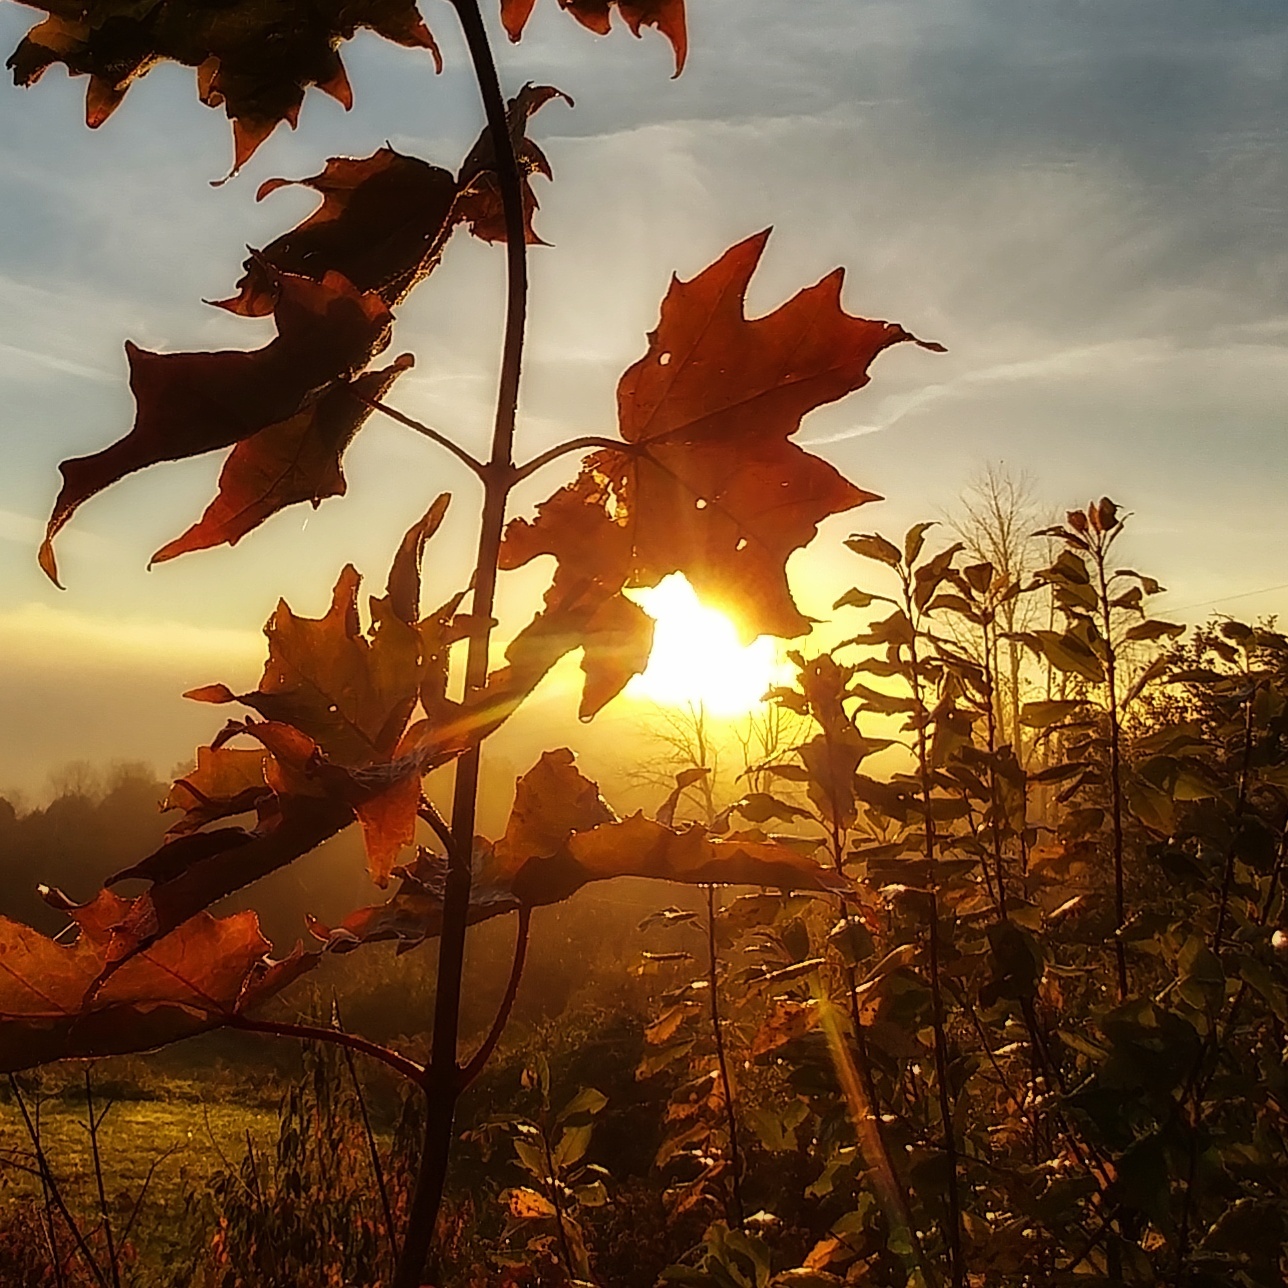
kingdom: Plantae
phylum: Tracheophyta
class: Magnoliopsida
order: Sapindales
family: Sapindaceae
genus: Acer
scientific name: Acer saccharum
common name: Sugar maple
